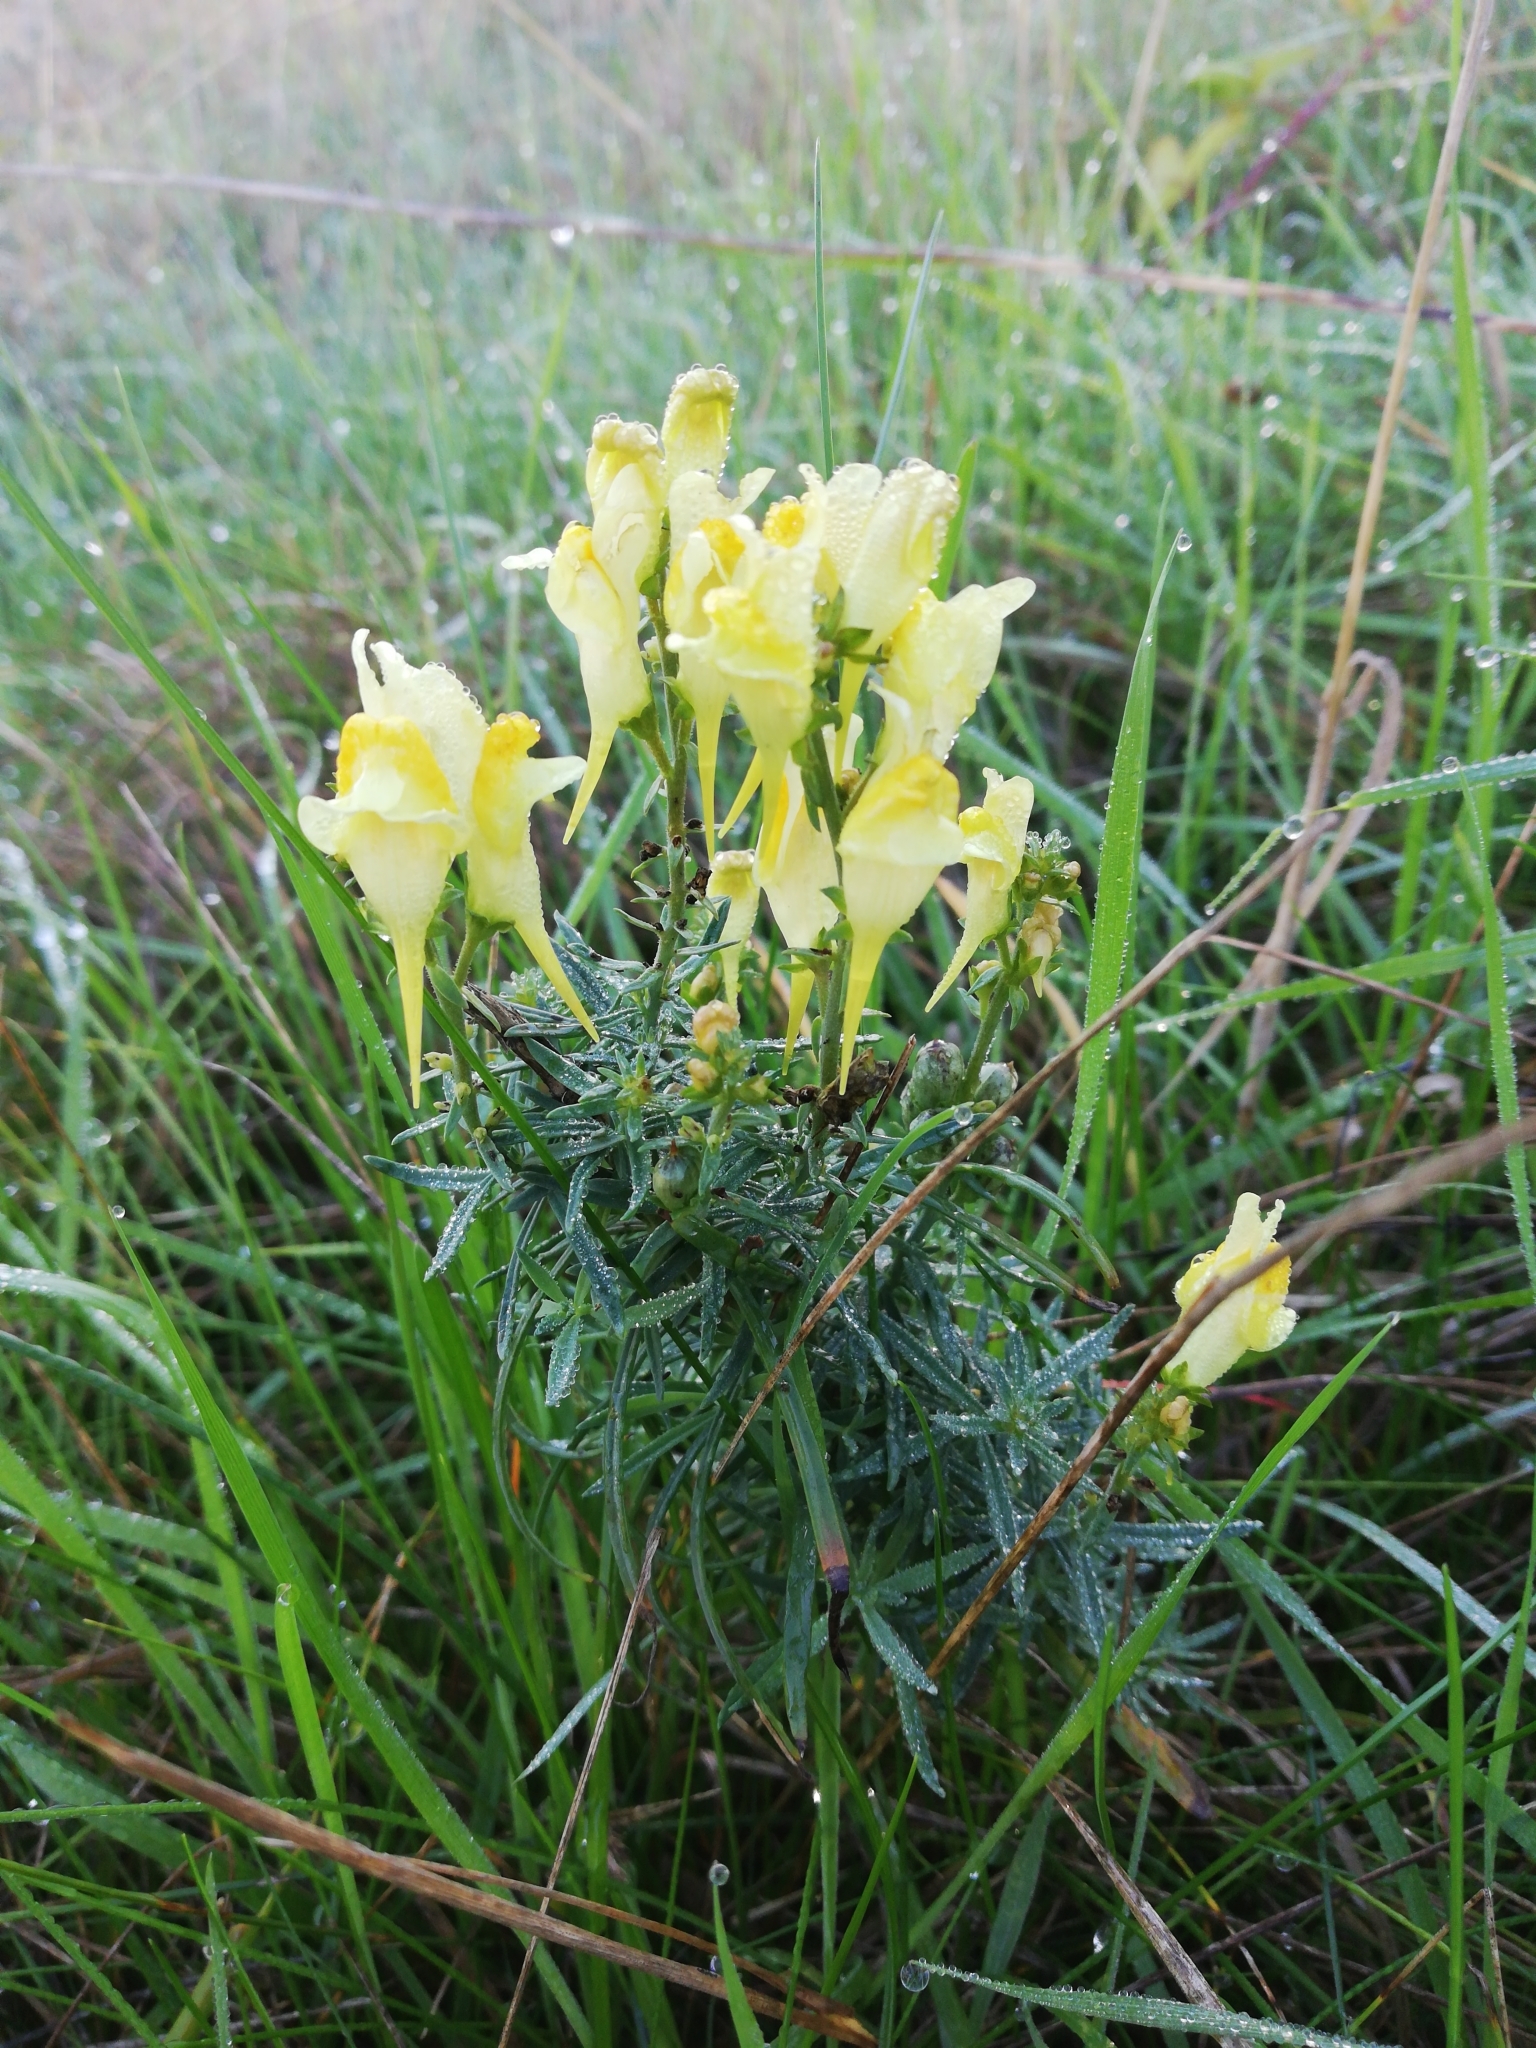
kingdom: Plantae
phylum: Tracheophyta
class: Magnoliopsida
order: Lamiales
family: Plantaginaceae
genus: Linaria
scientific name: Linaria vulgaris
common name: Butter and eggs
